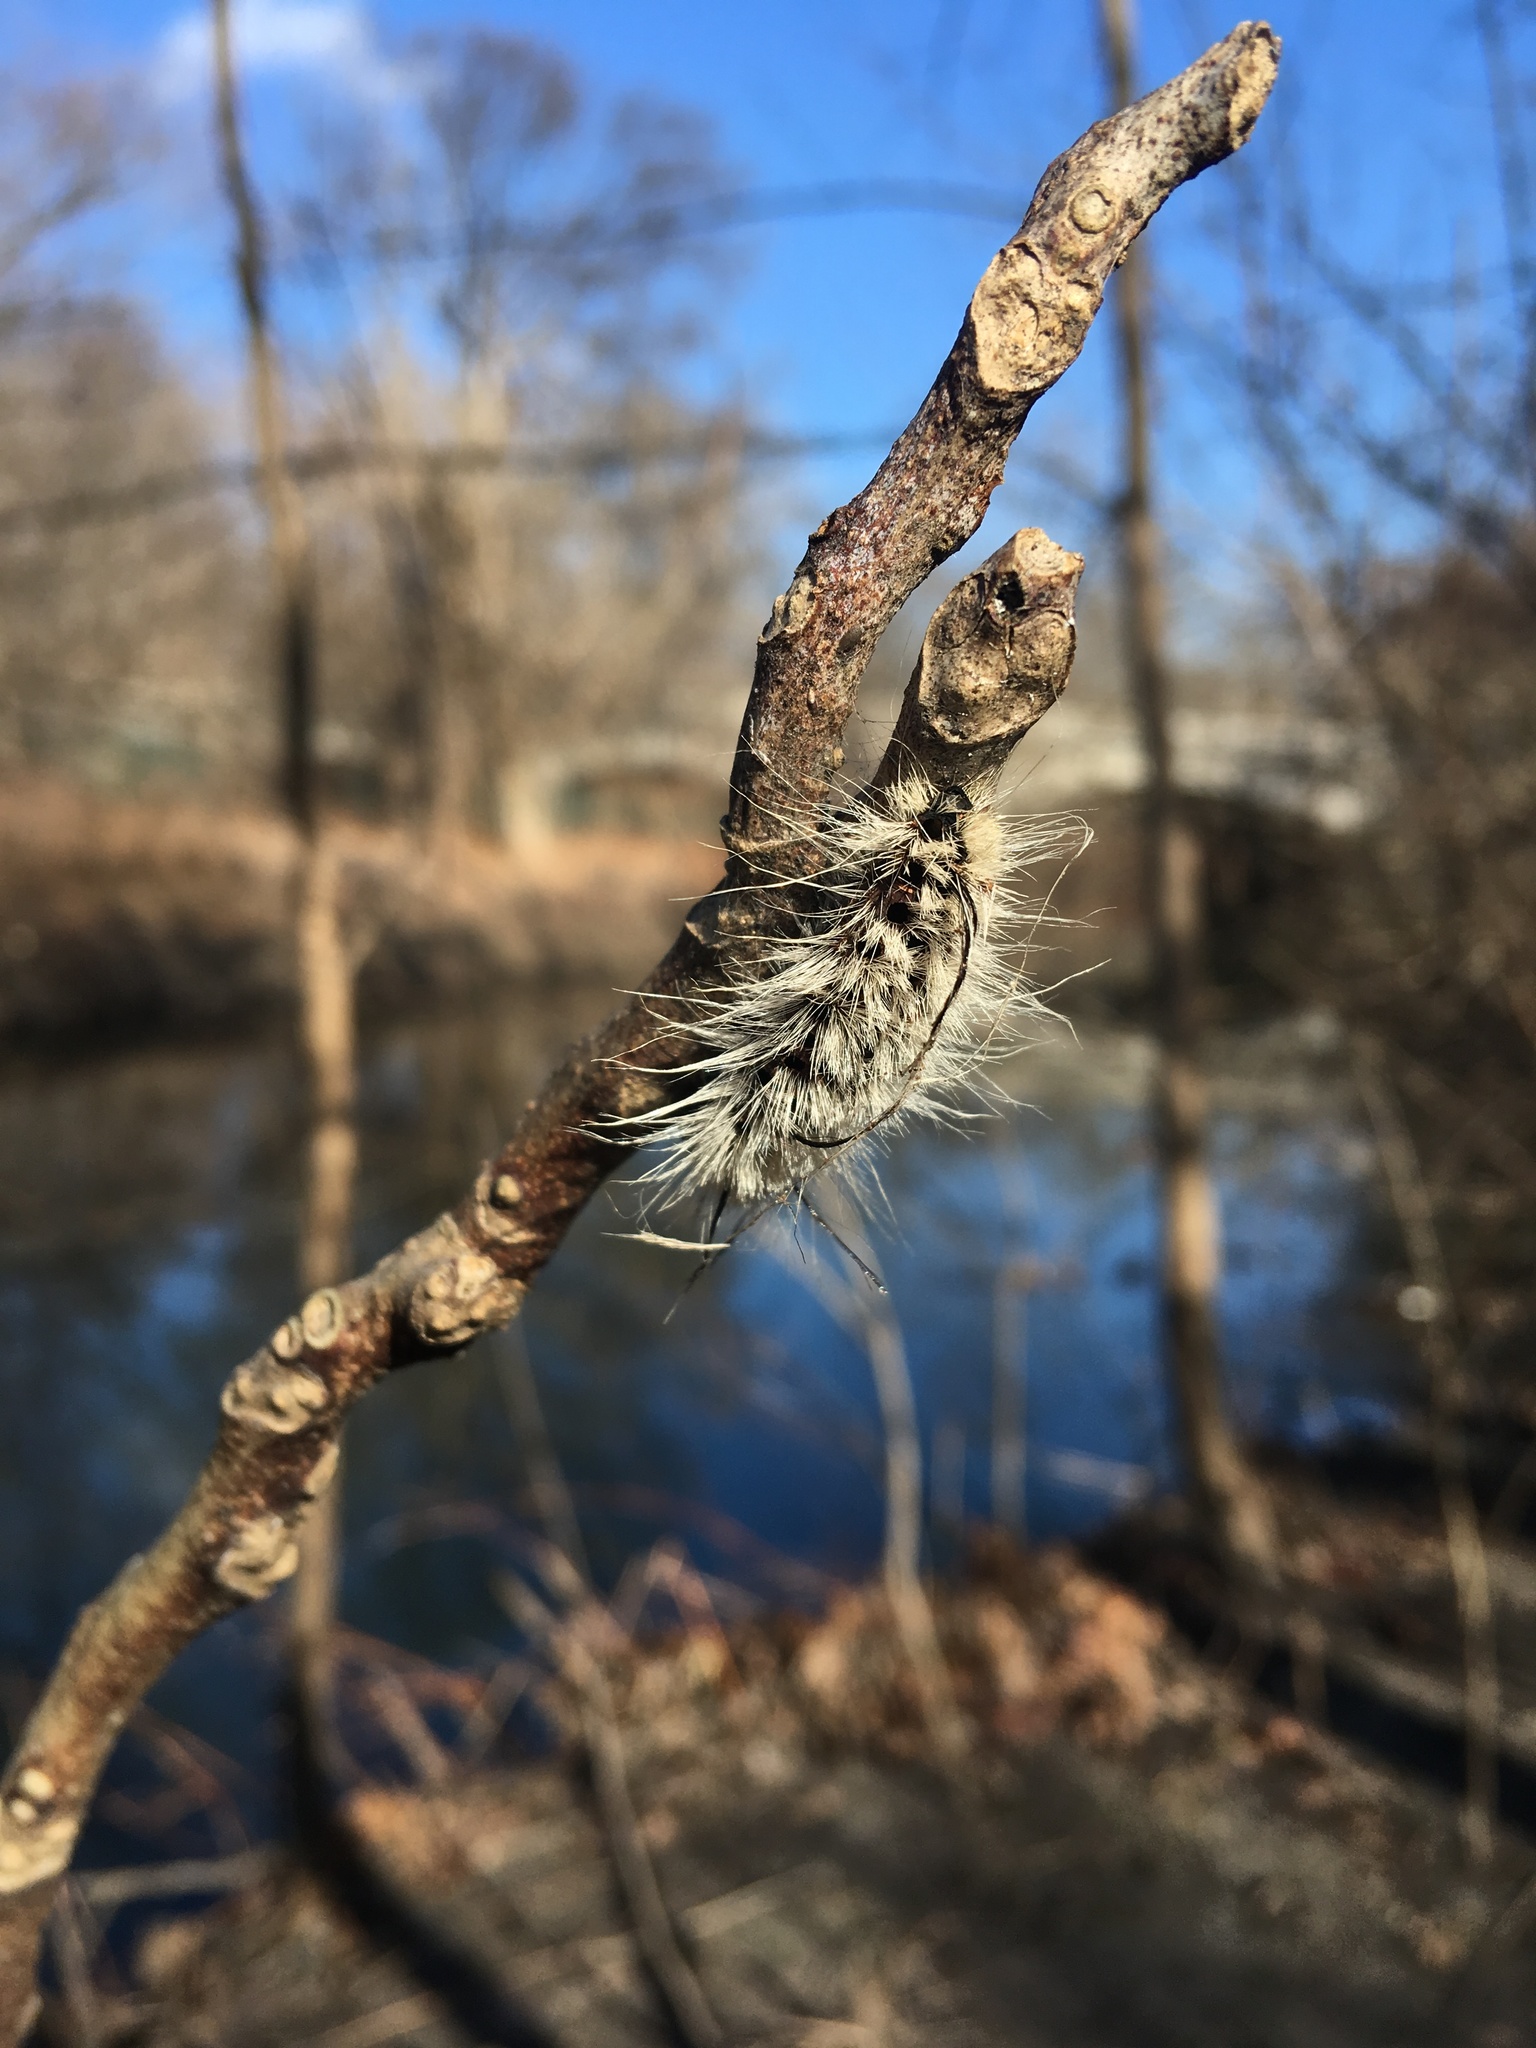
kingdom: Animalia
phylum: Arthropoda
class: Insecta
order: Lepidoptera
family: Noctuidae
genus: Acronicta
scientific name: Acronicta americana
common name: American dagger
